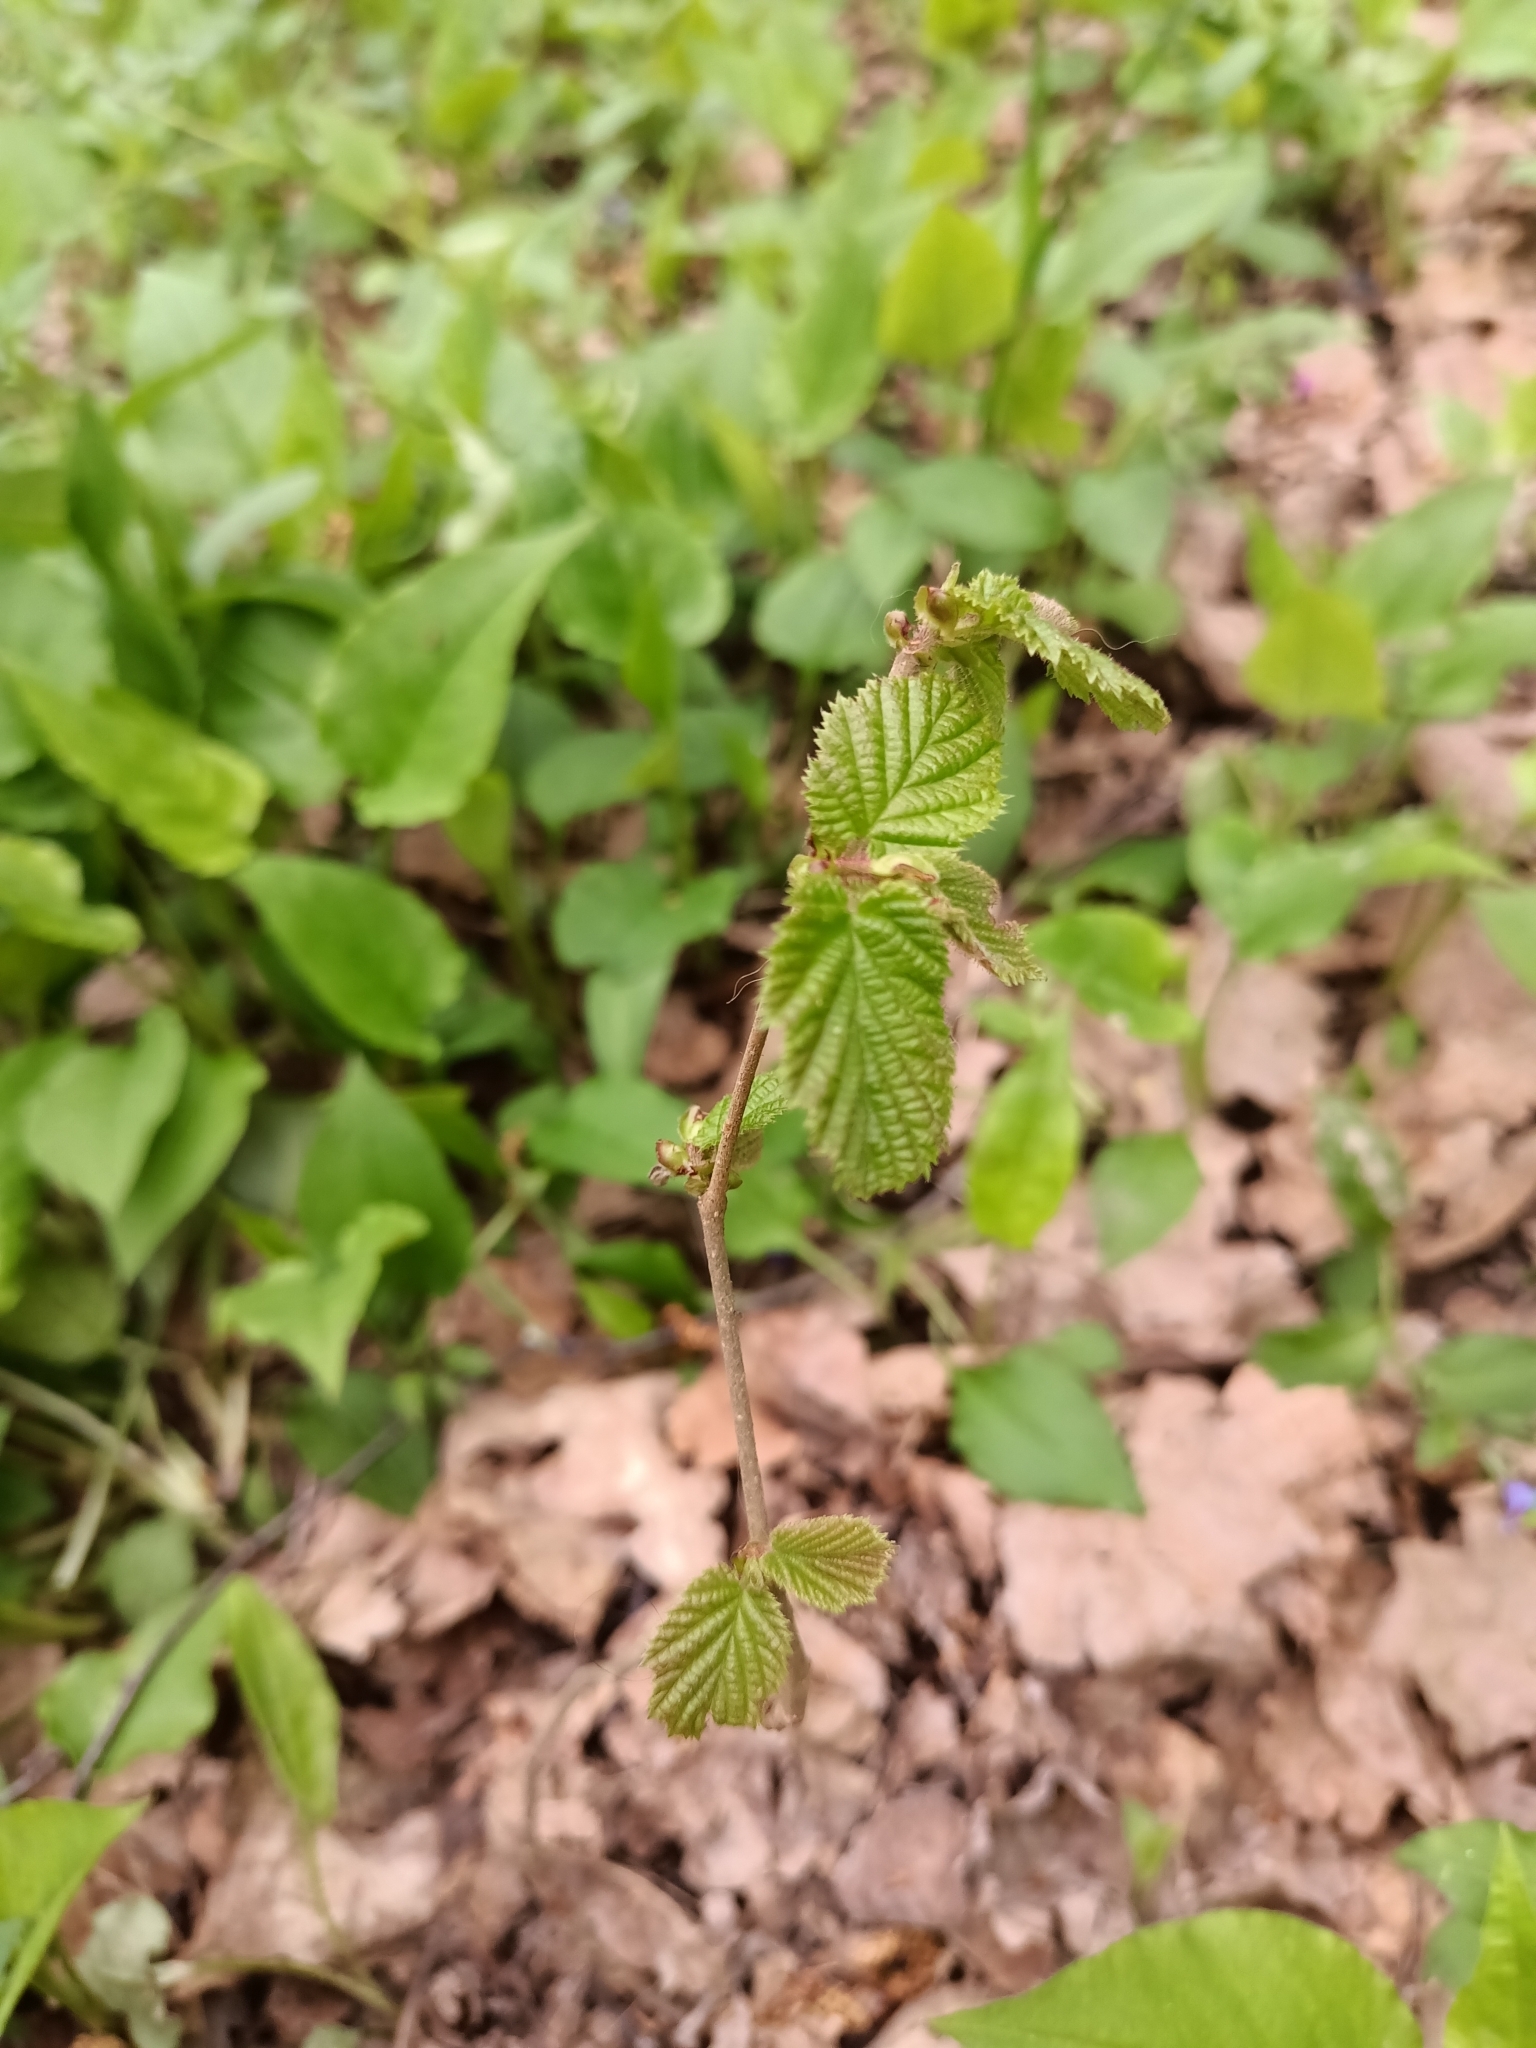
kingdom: Plantae
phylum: Tracheophyta
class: Magnoliopsida
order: Fagales
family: Betulaceae
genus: Corylus
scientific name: Corylus avellana
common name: European hazel
